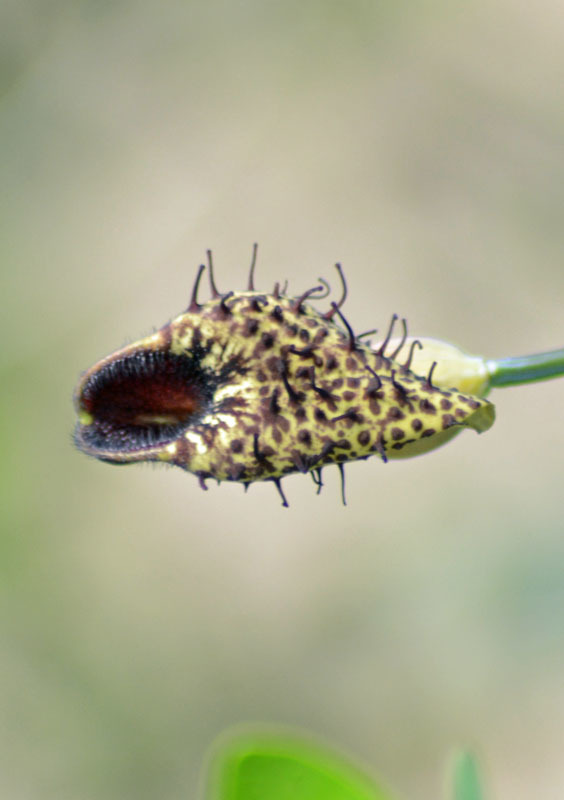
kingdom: Plantae
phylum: Tracheophyta
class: Magnoliopsida
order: Piperales
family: Aristolochiaceae
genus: Aristolochia
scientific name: Aristolochia taliscana
